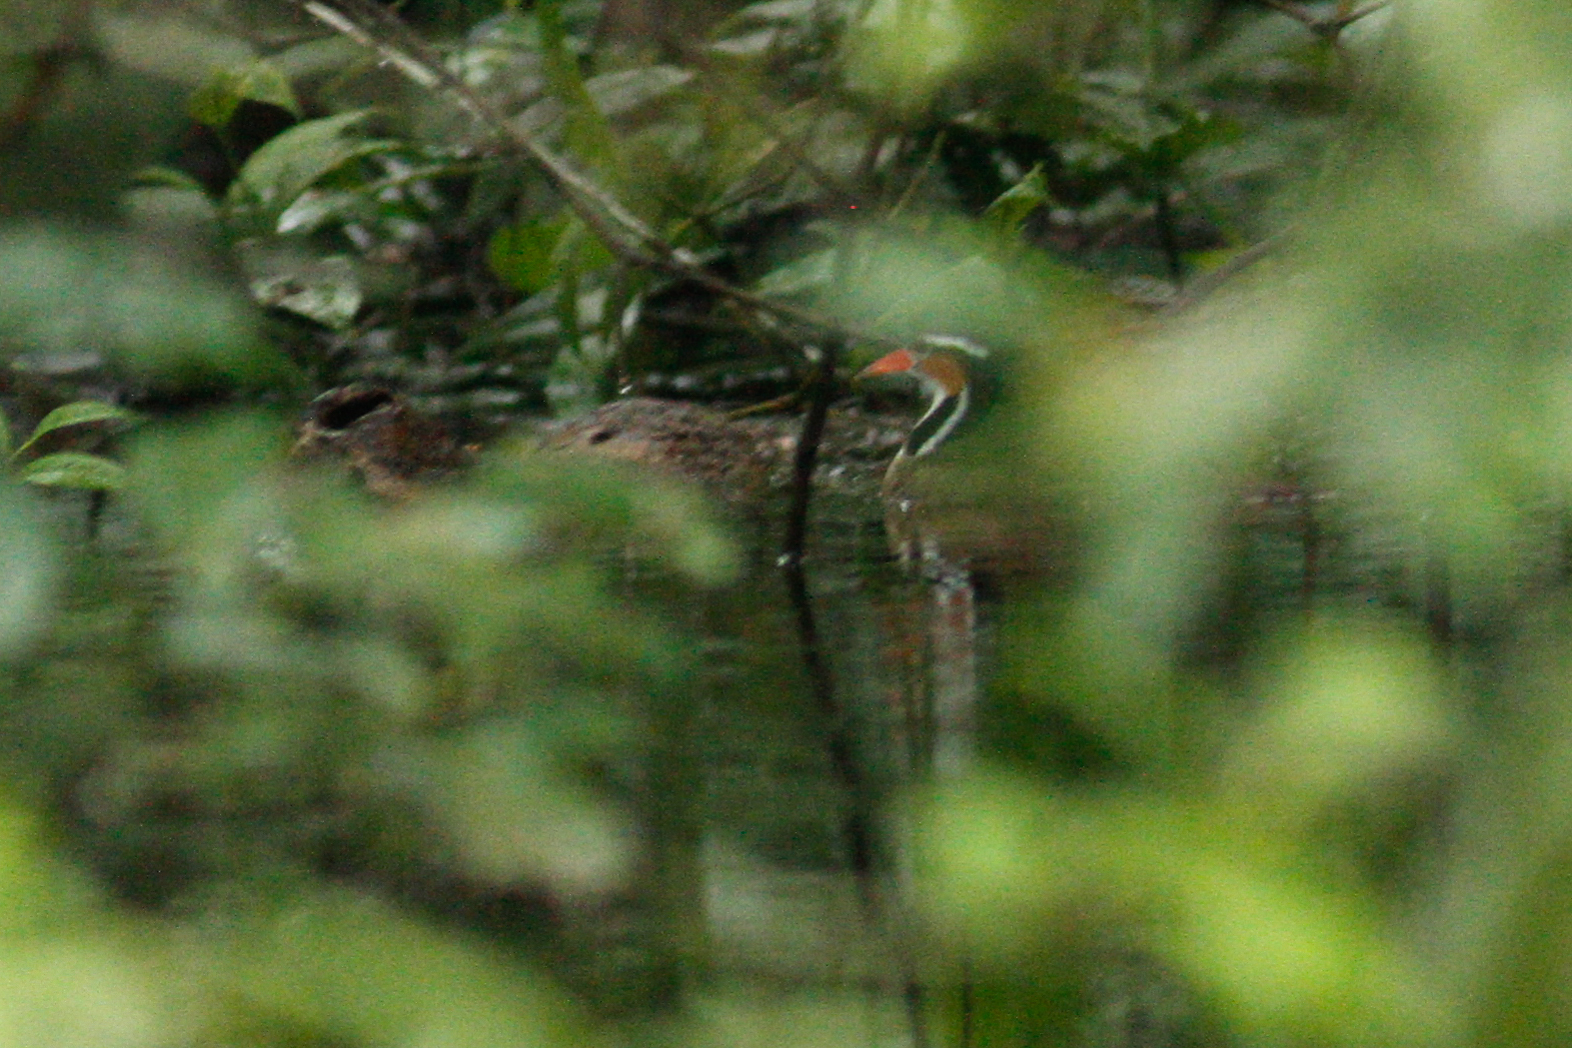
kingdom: Animalia
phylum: Chordata
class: Aves
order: Gruiformes
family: Heliornithidae
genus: Heliornis
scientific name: Heliornis fulica
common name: Sungrebe
